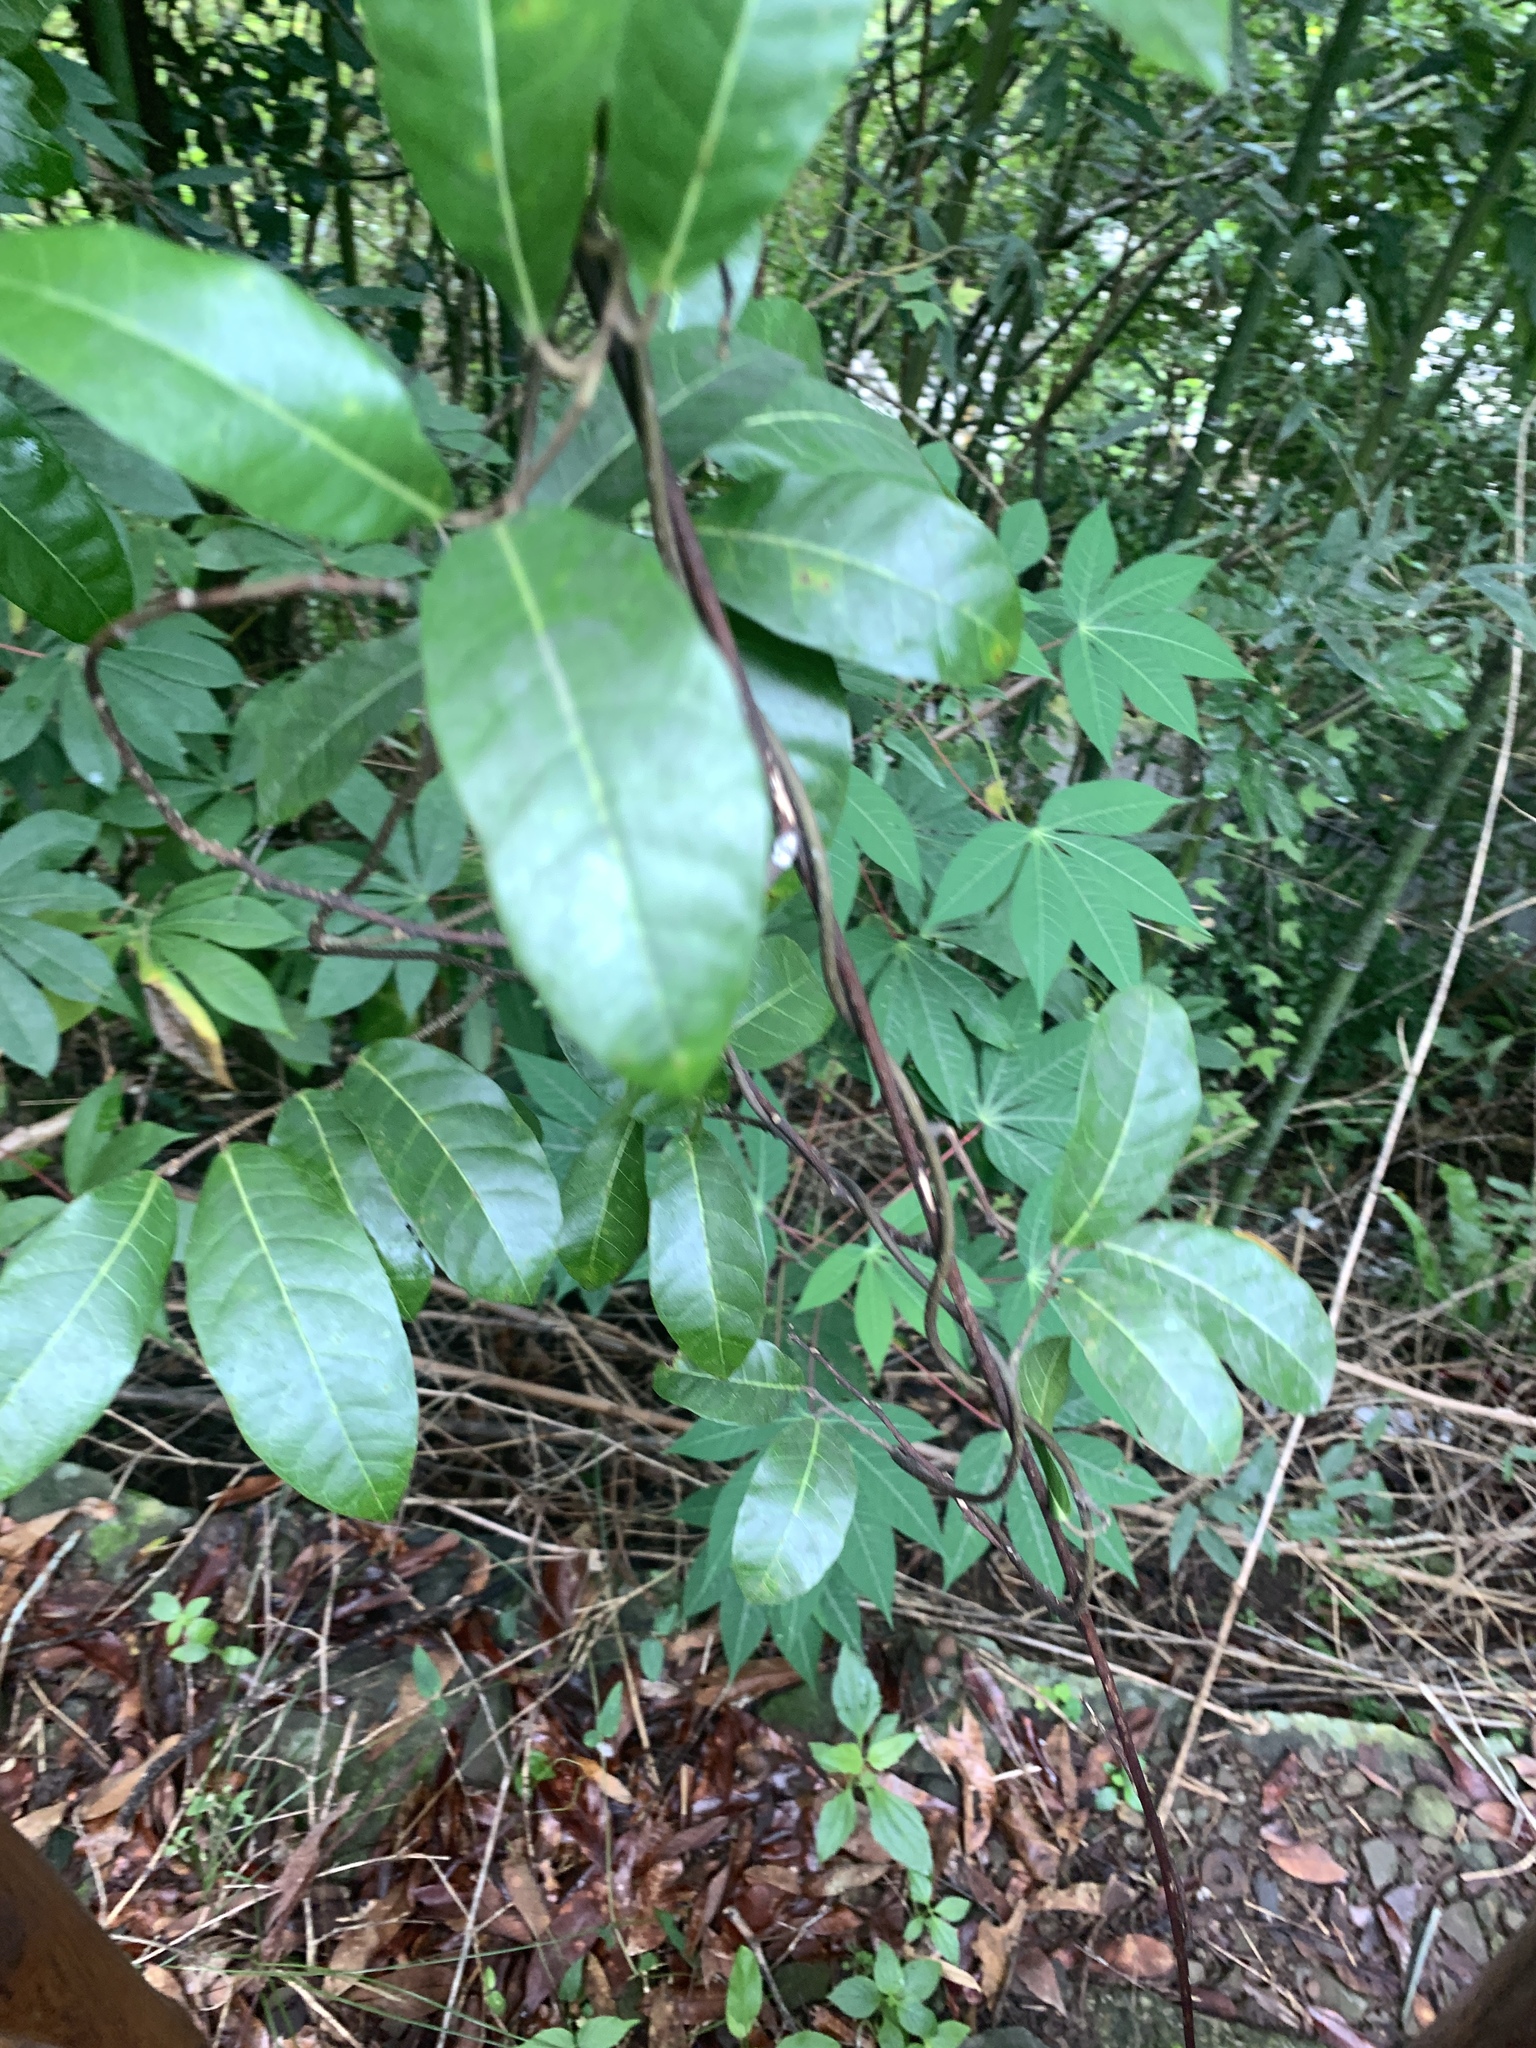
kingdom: Plantae
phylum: Tracheophyta
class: Magnoliopsida
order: Rosales
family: Moraceae
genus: Malaisia
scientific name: Malaisia scandens
